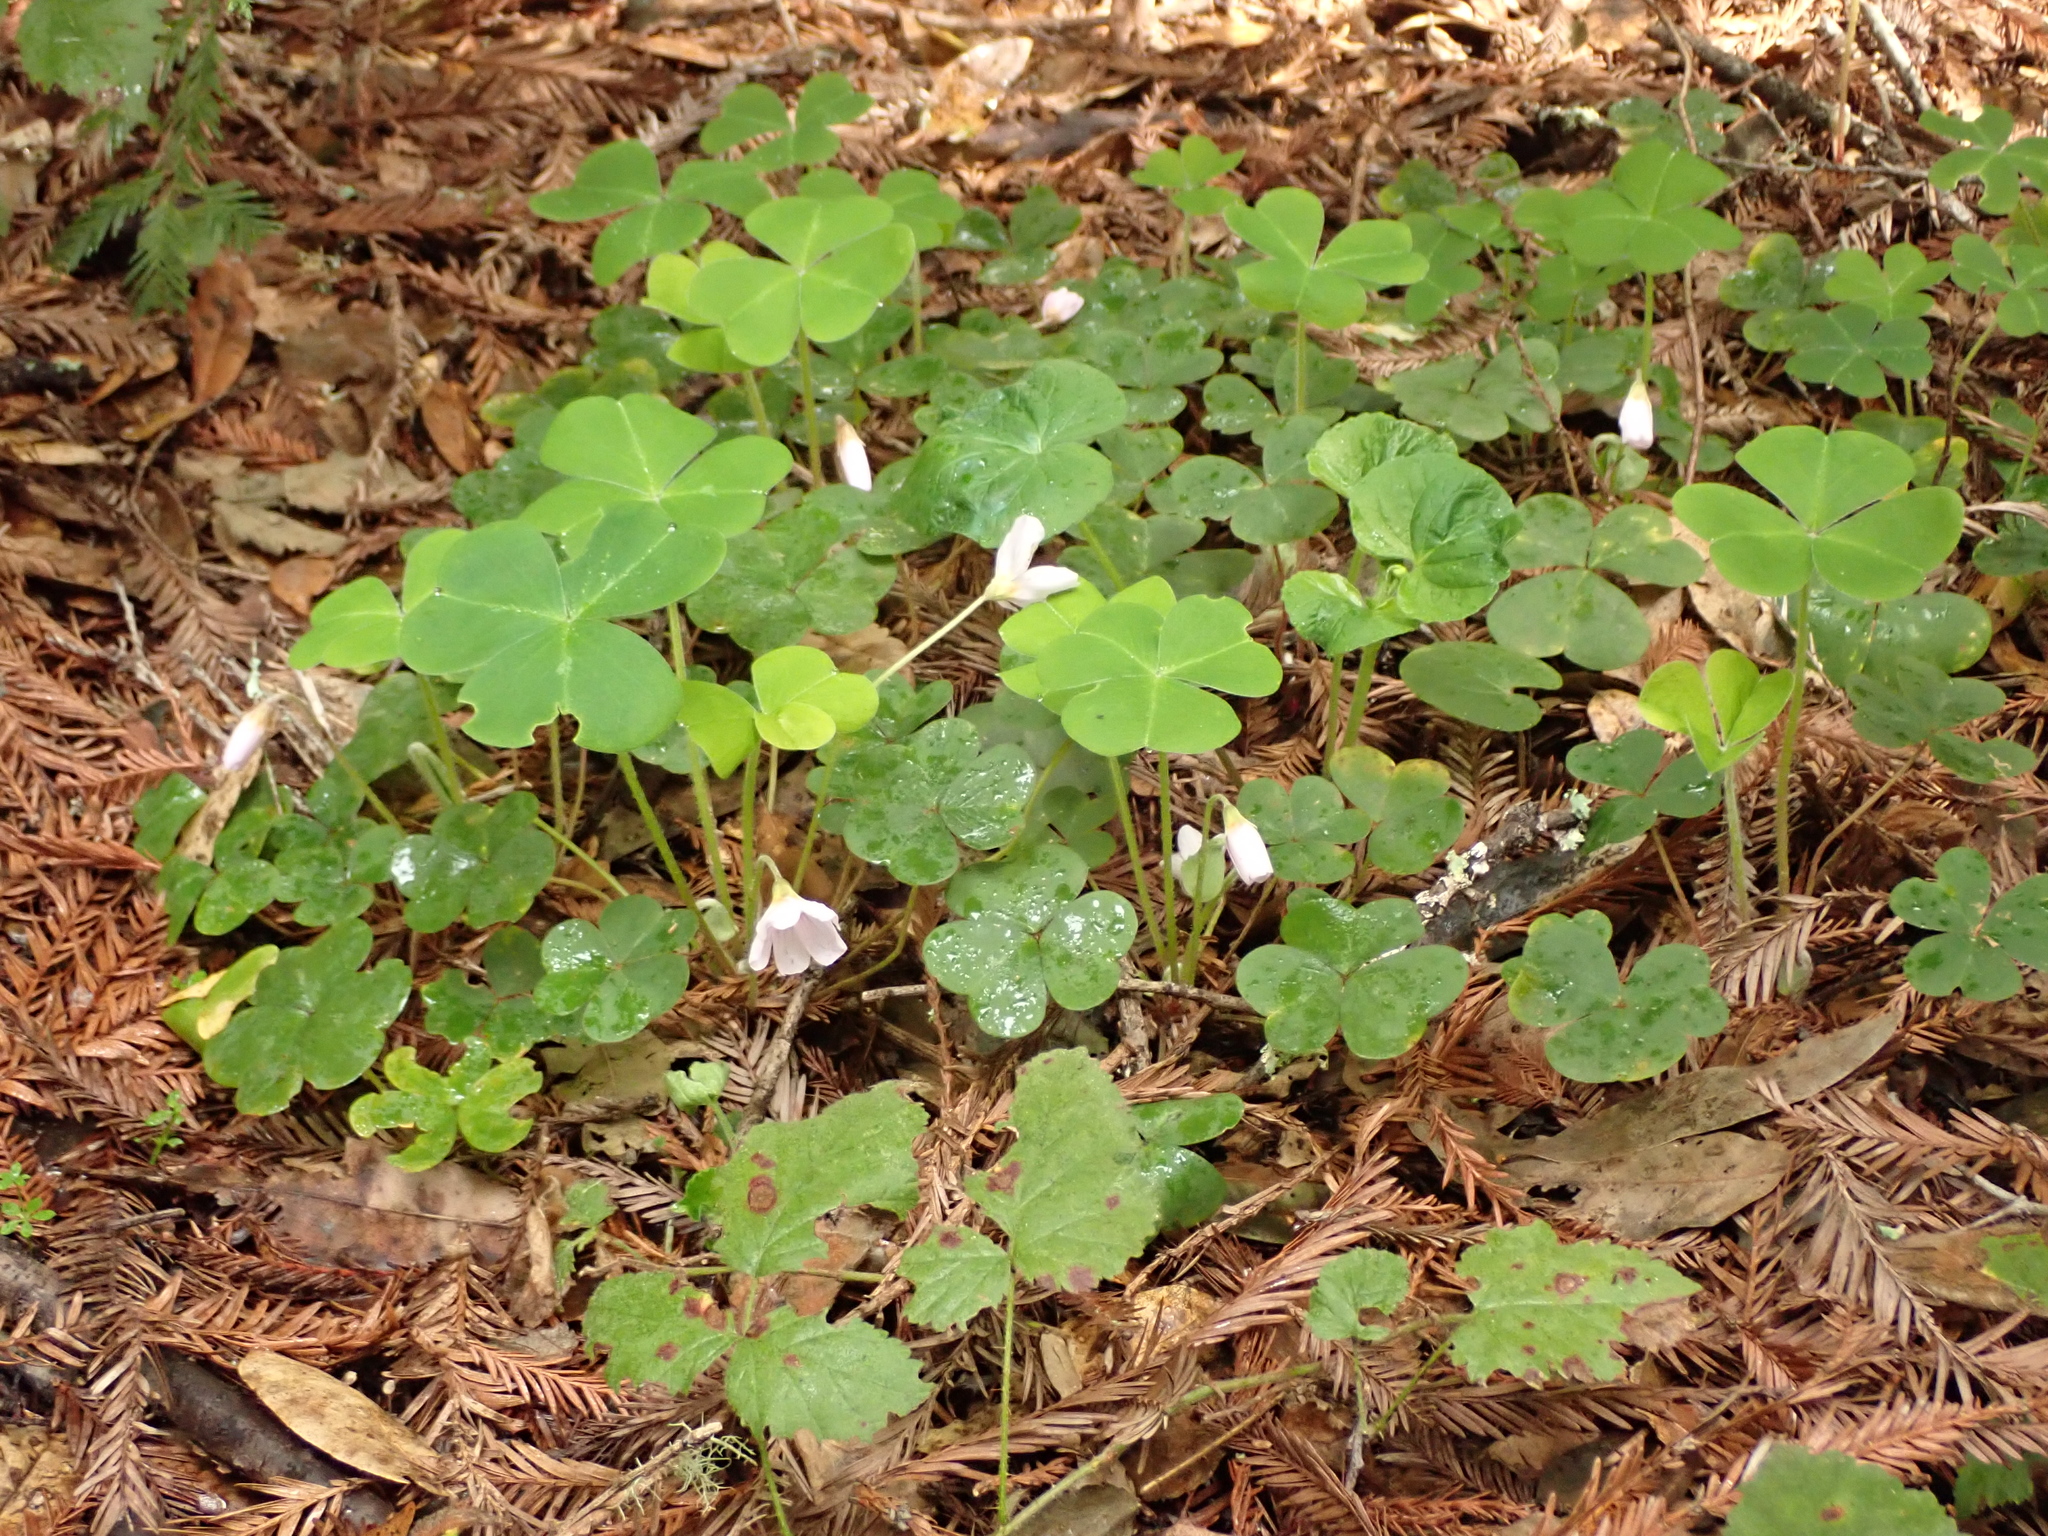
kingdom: Plantae
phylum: Tracheophyta
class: Magnoliopsida
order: Oxalidales
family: Oxalidaceae
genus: Oxalis
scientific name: Oxalis oregana
